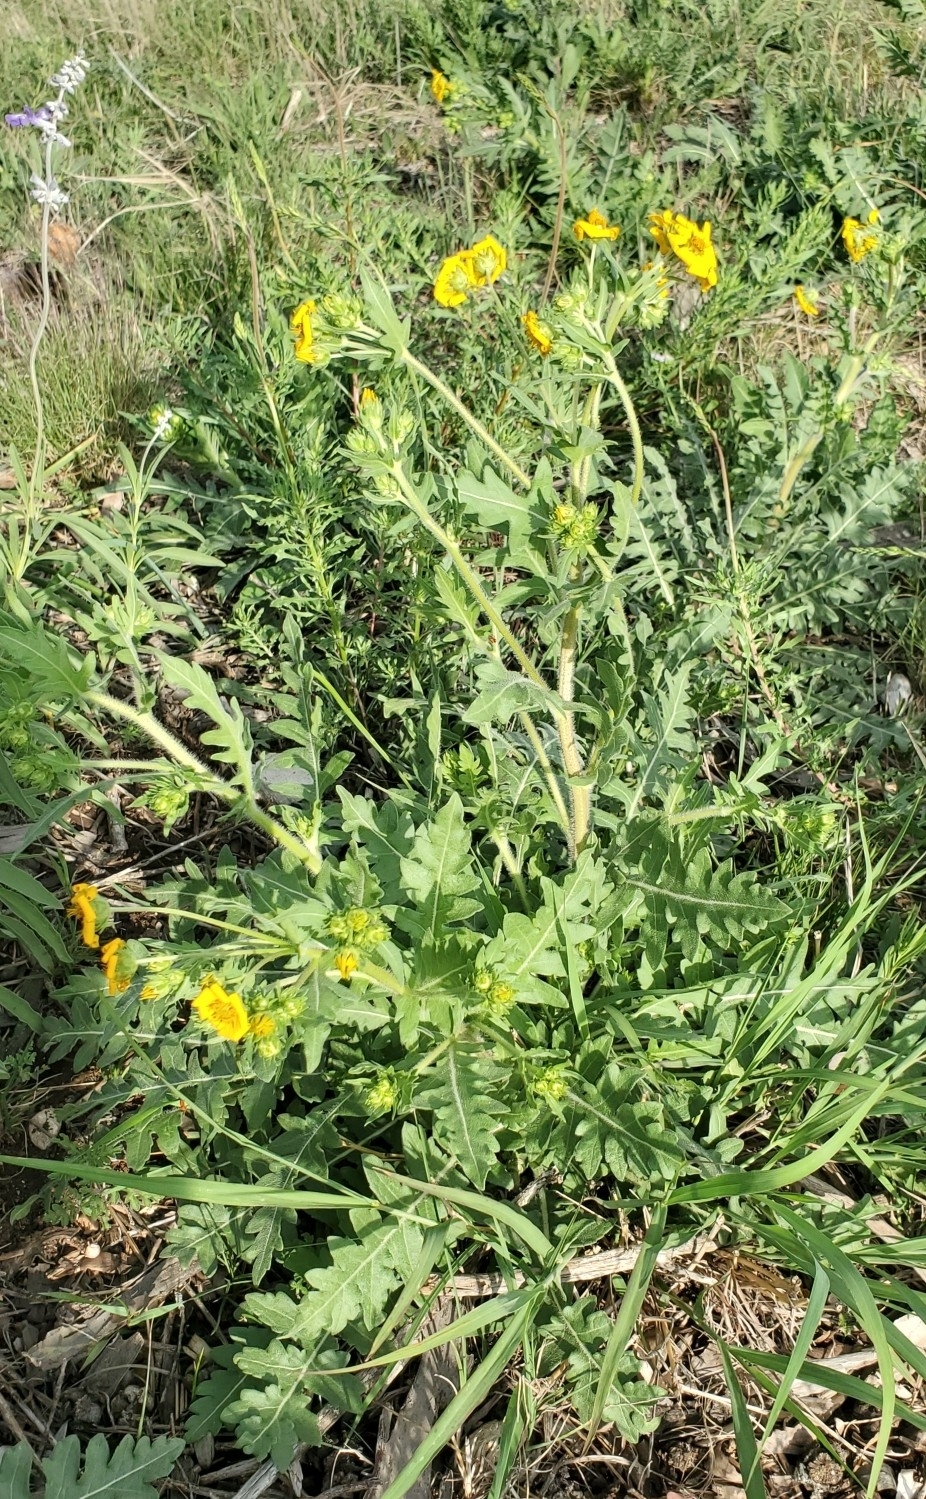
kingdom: Plantae
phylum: Tracheophyta
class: Magnoliopsida
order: Asterales
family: Asteraceae
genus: Engelmannia
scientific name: Engelmannia peristenia
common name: Engelmann's daisy
